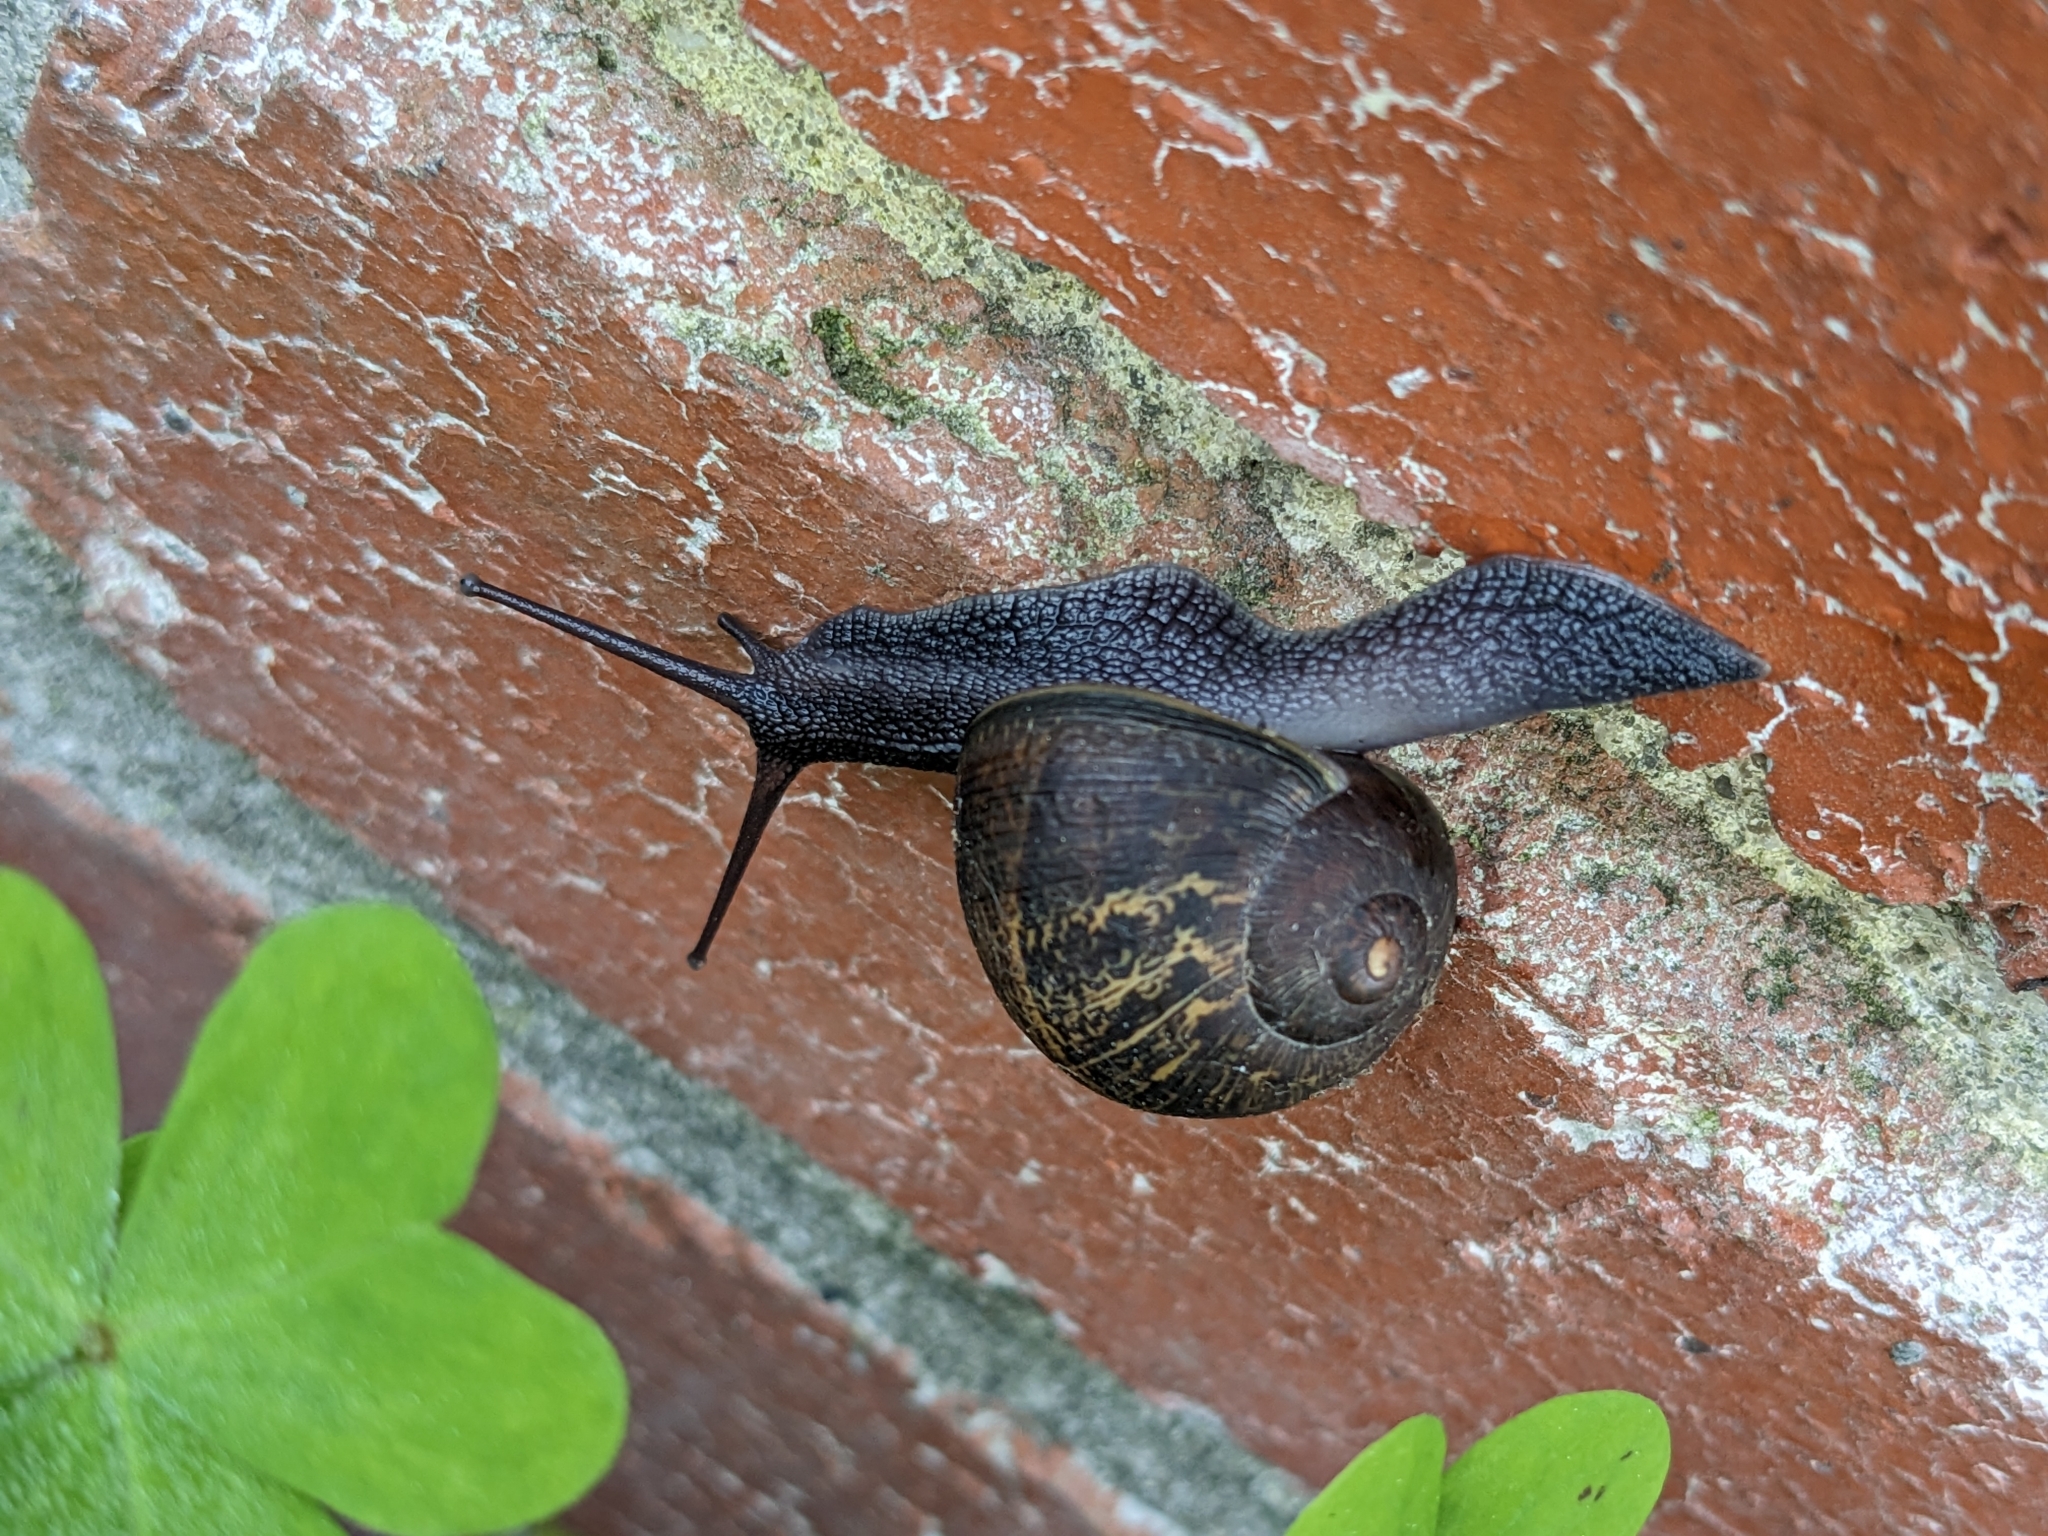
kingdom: Animalia
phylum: Mollusca
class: Gastropoda
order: Stylommatophora
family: Helicidae
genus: Cornu
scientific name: Cornu aspersum
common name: Brown garden snail
